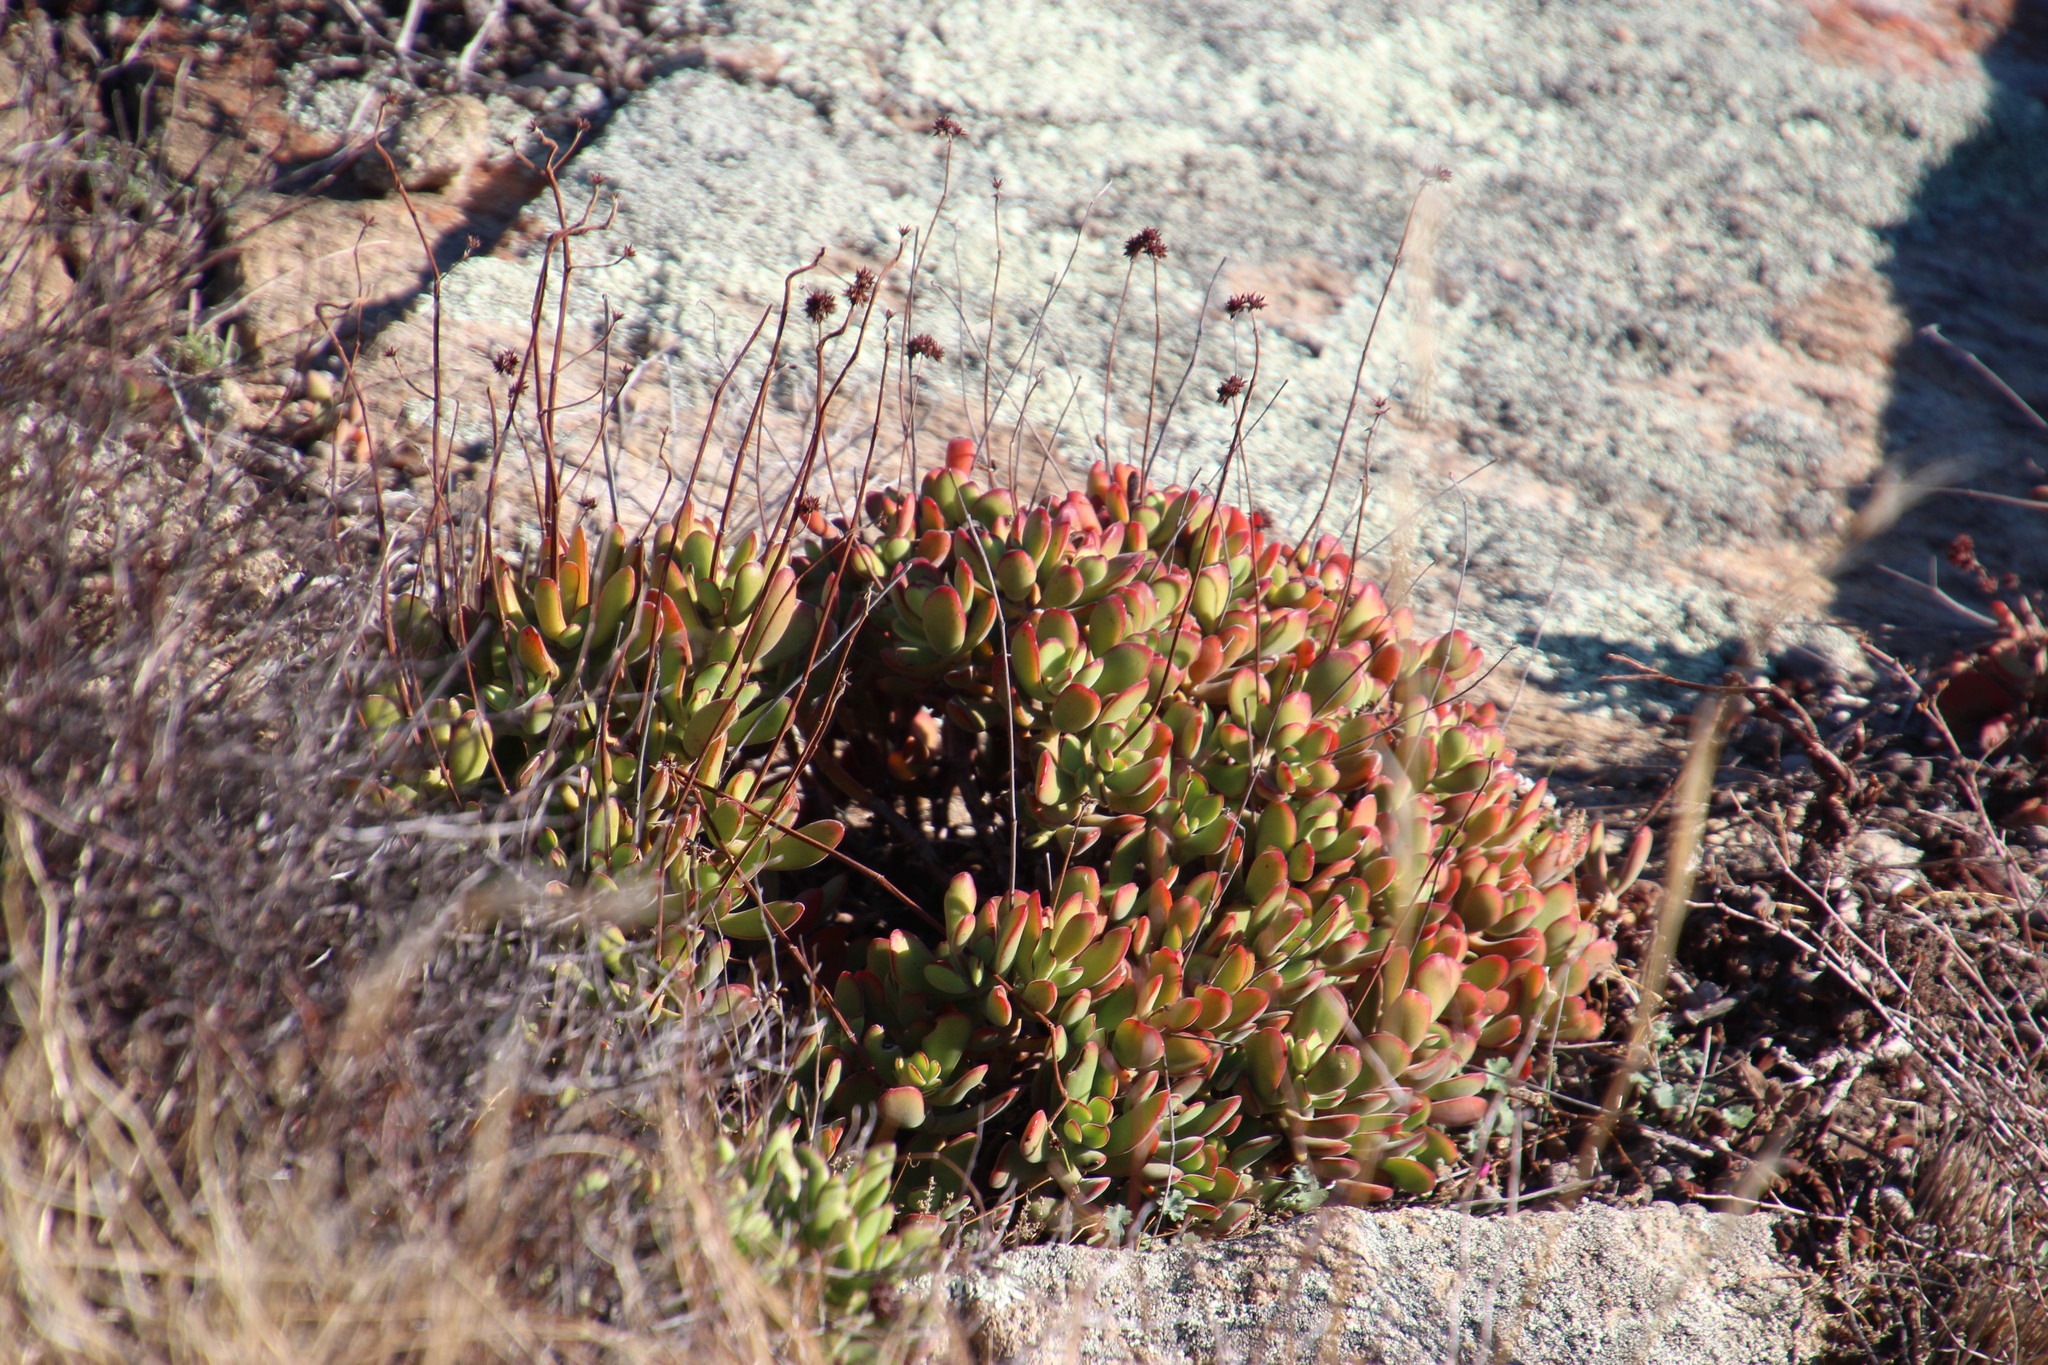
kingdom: Plantae
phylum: Tracheophyta
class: Magnoliopsida
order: Saxifragales
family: Crassulaceae
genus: Crassula
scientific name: Crassula atropurpurea
